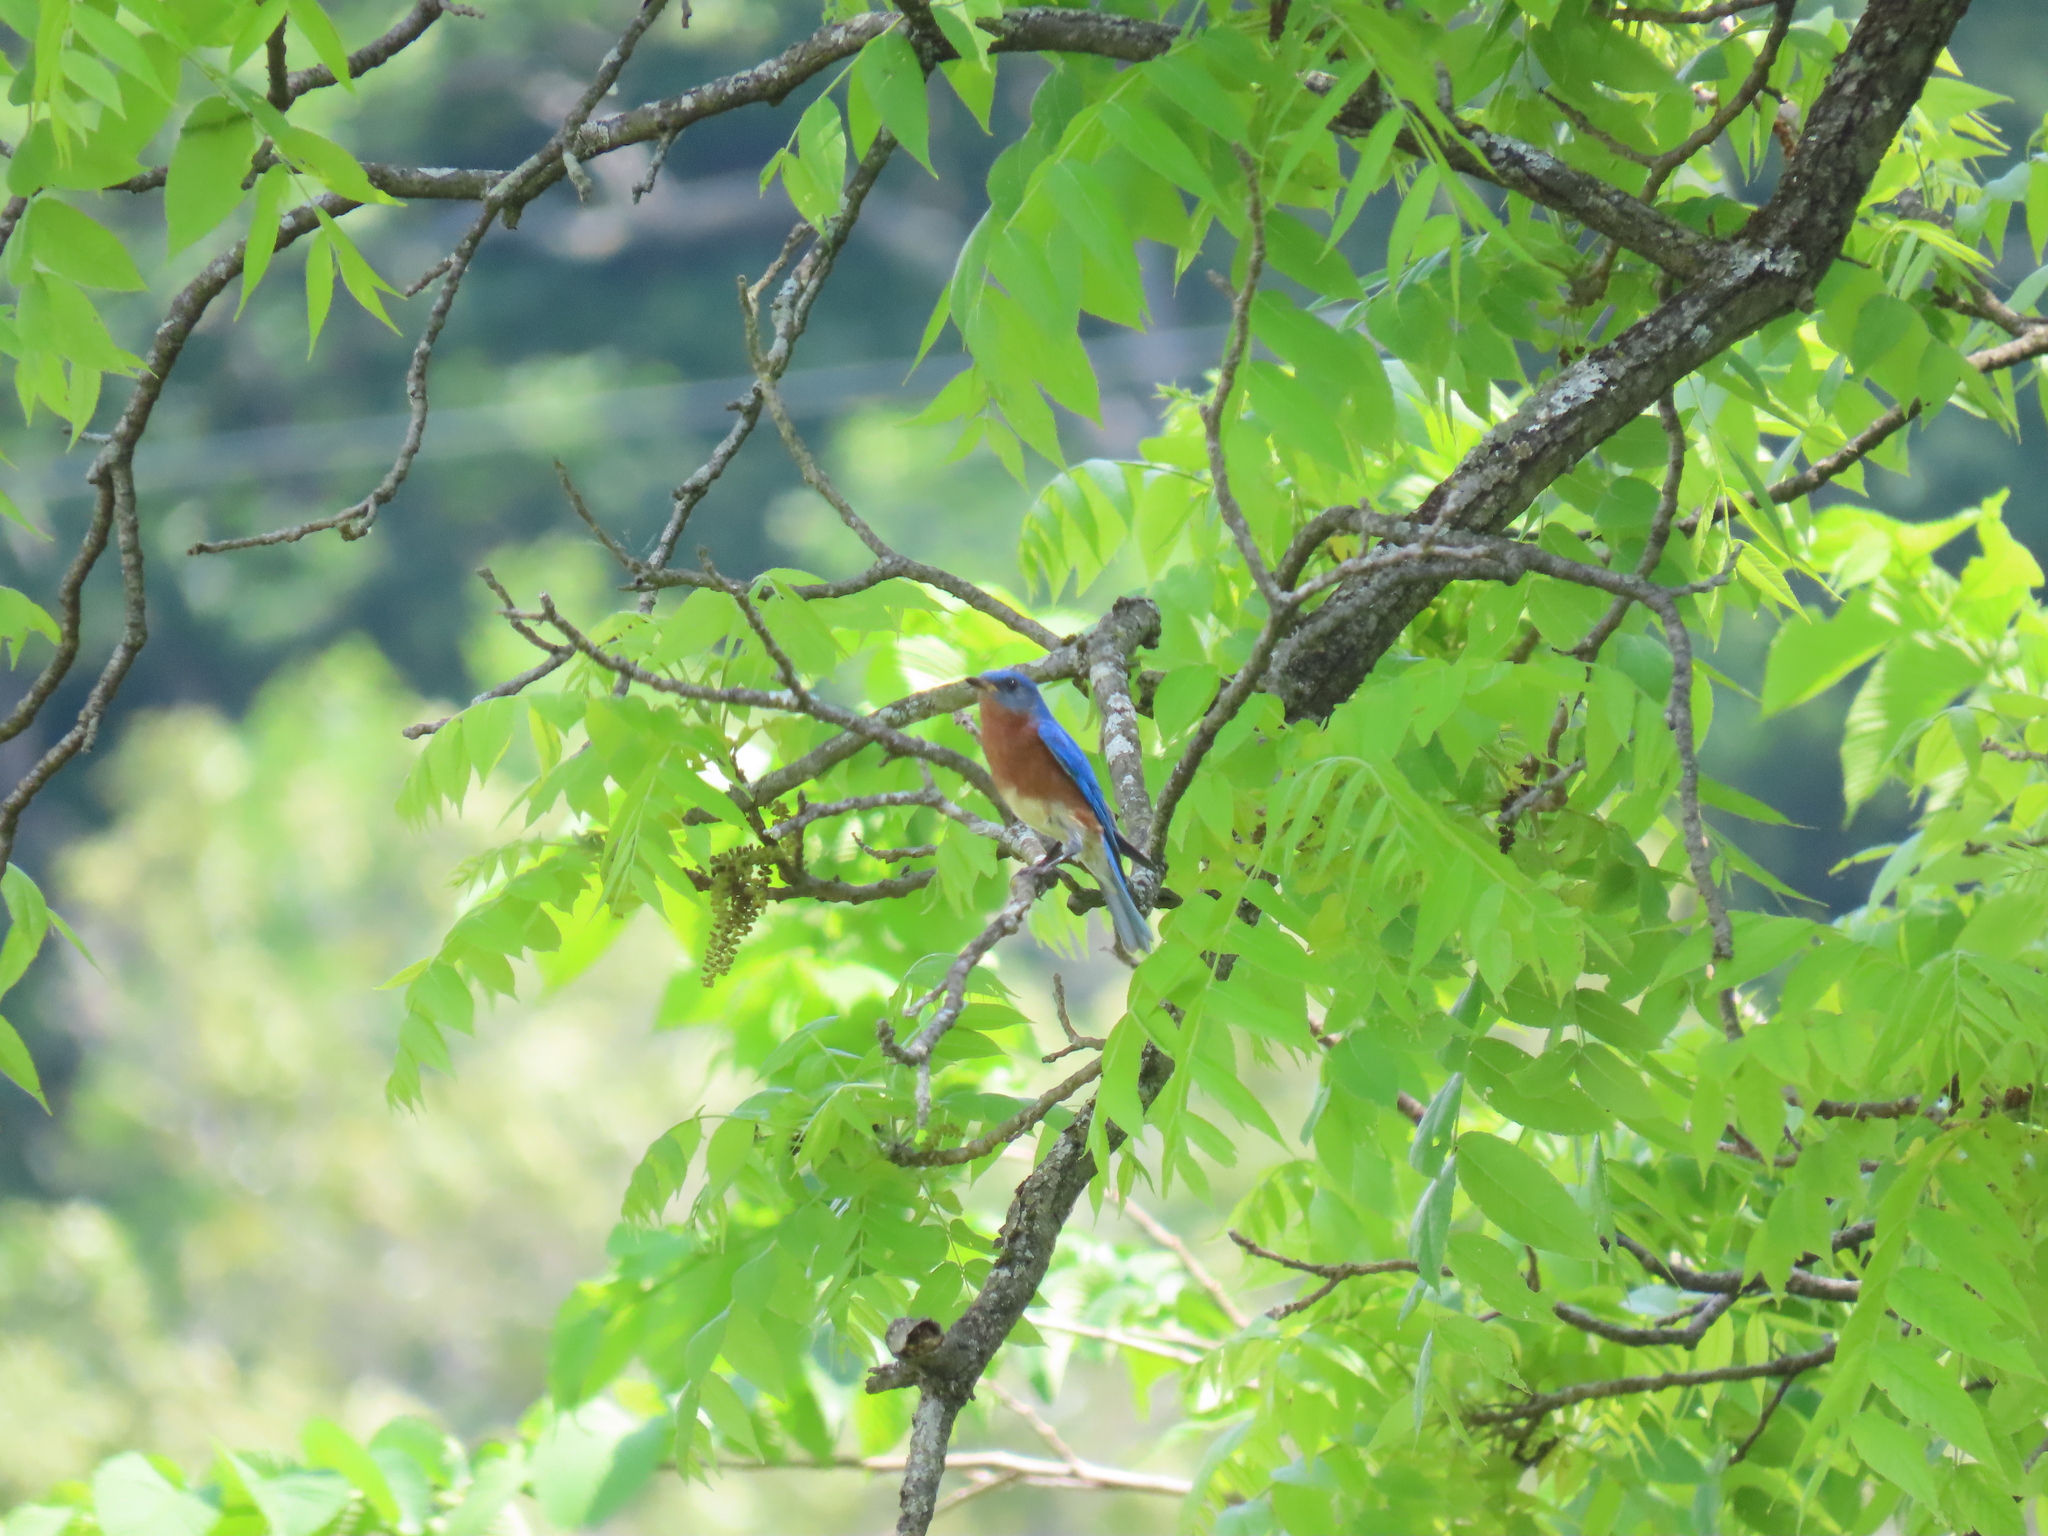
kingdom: Animalia
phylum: Chordata
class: Aves
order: Passeriformes
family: Turdidae
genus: Sialia
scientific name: Sialia sialis
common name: Eastern bluebird
